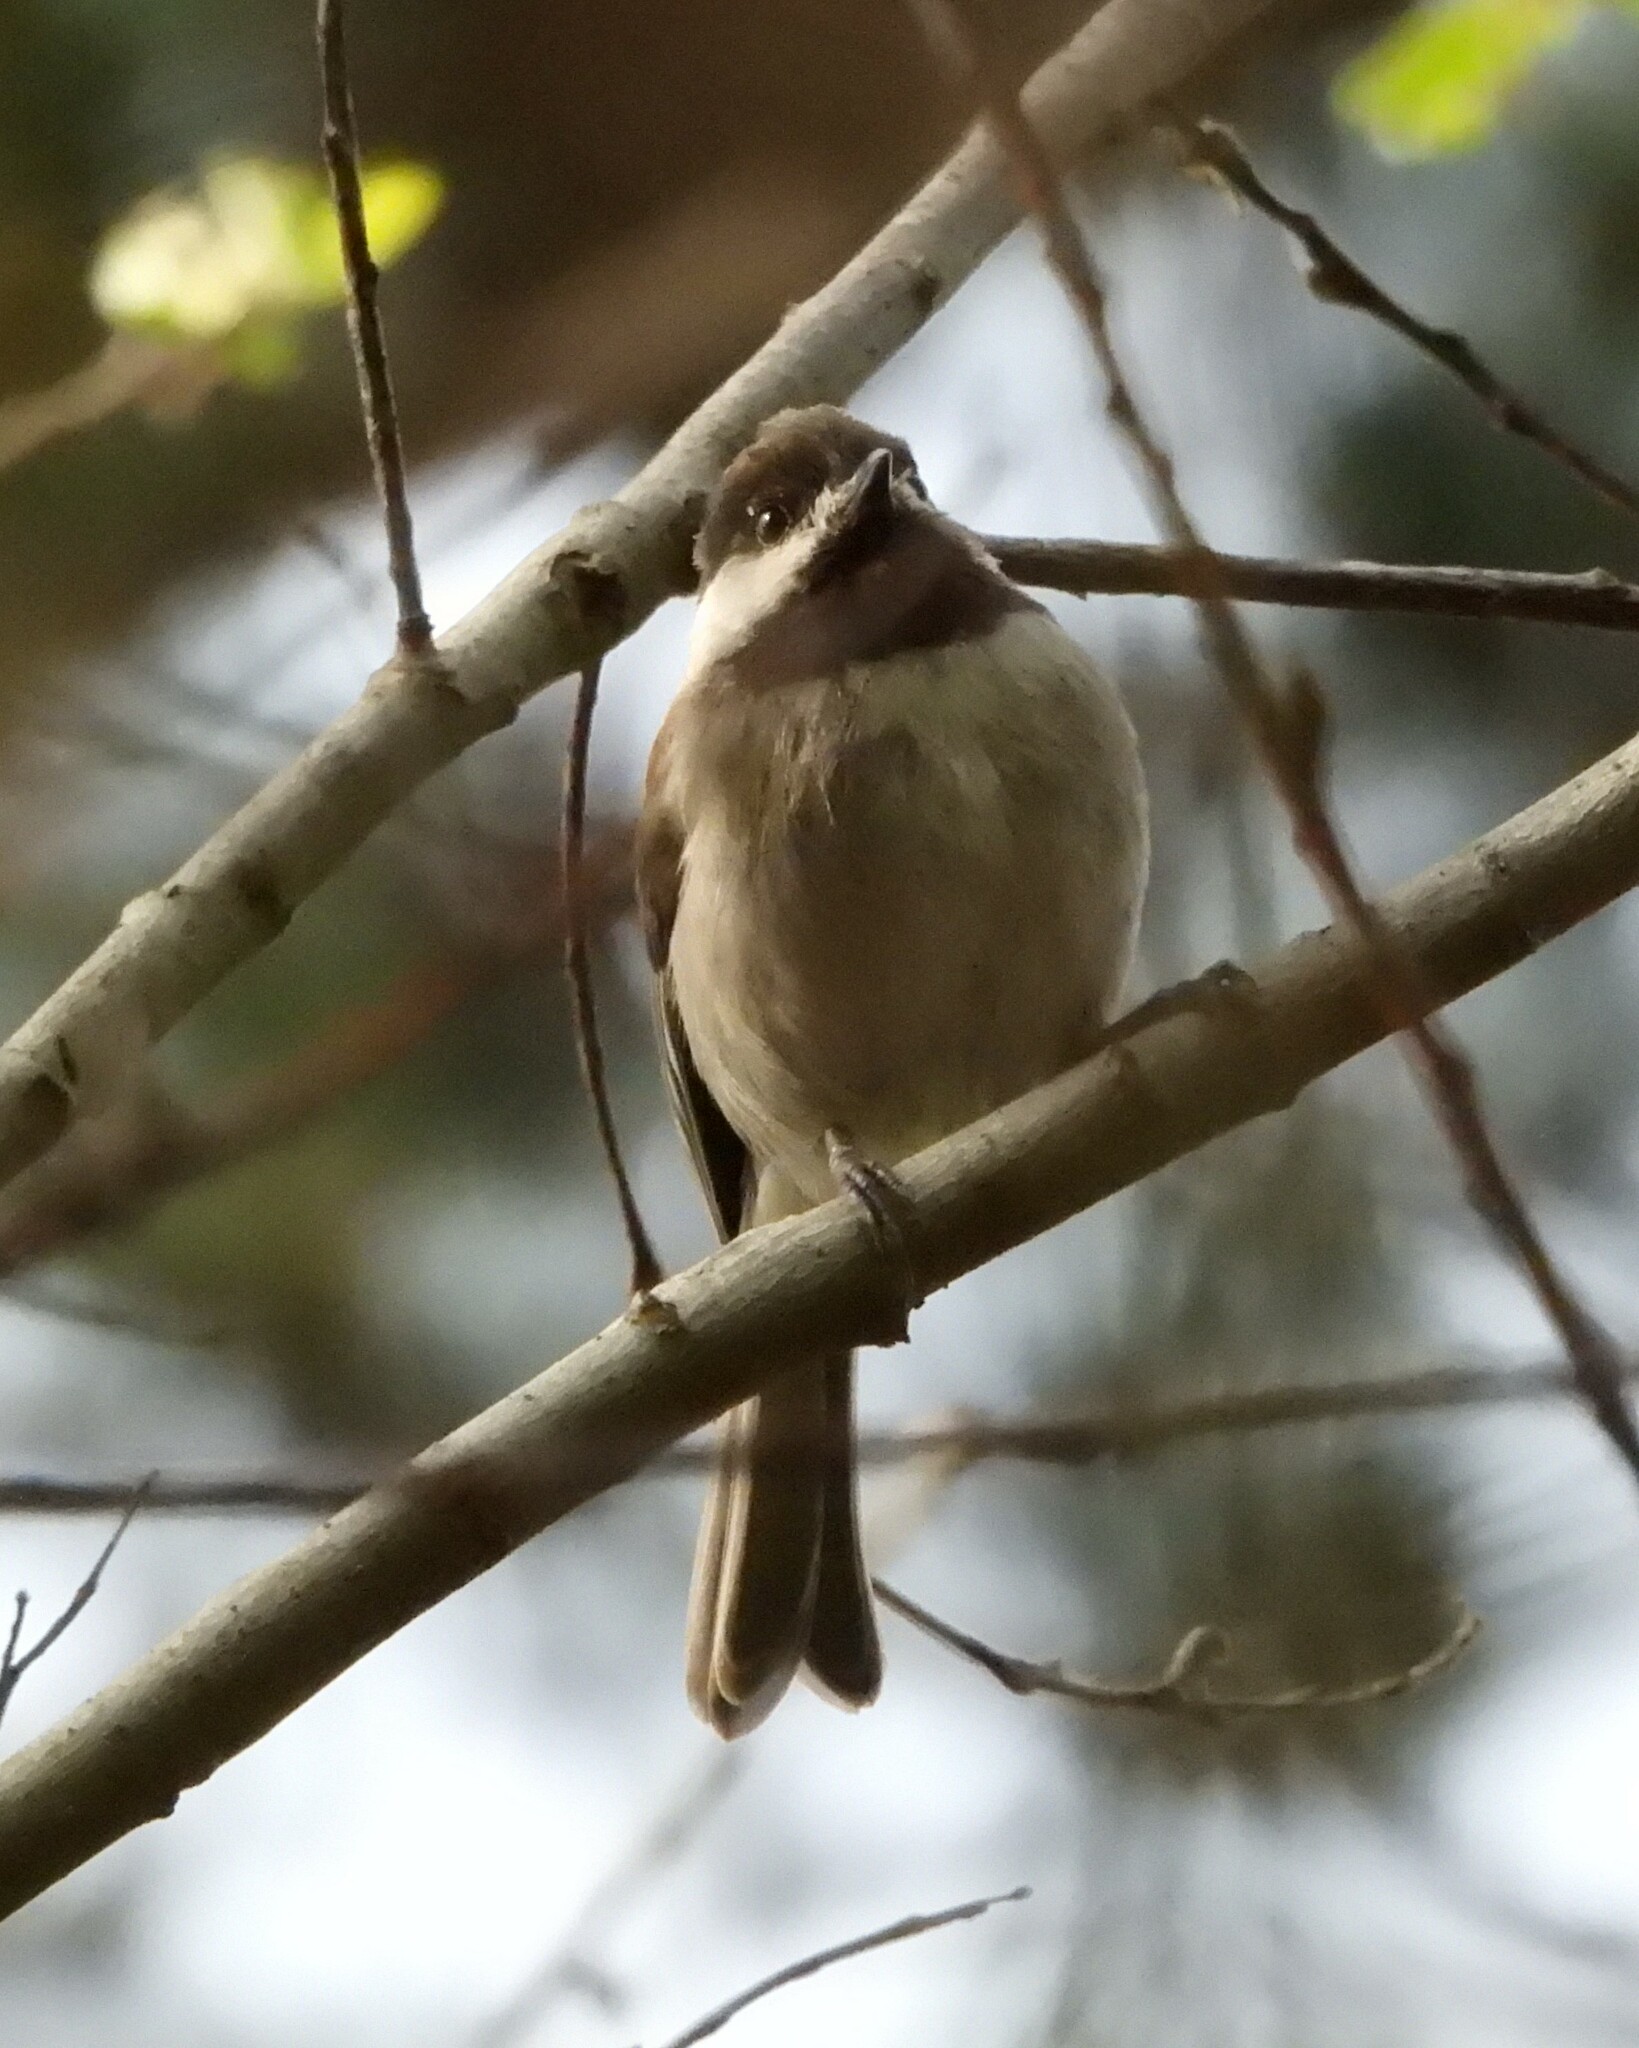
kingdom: Animalia
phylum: Chordata
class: Aves
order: Passeriformes
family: Paridae
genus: Poecile
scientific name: Poecile rufescens
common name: Chestnut-backed chickadee
